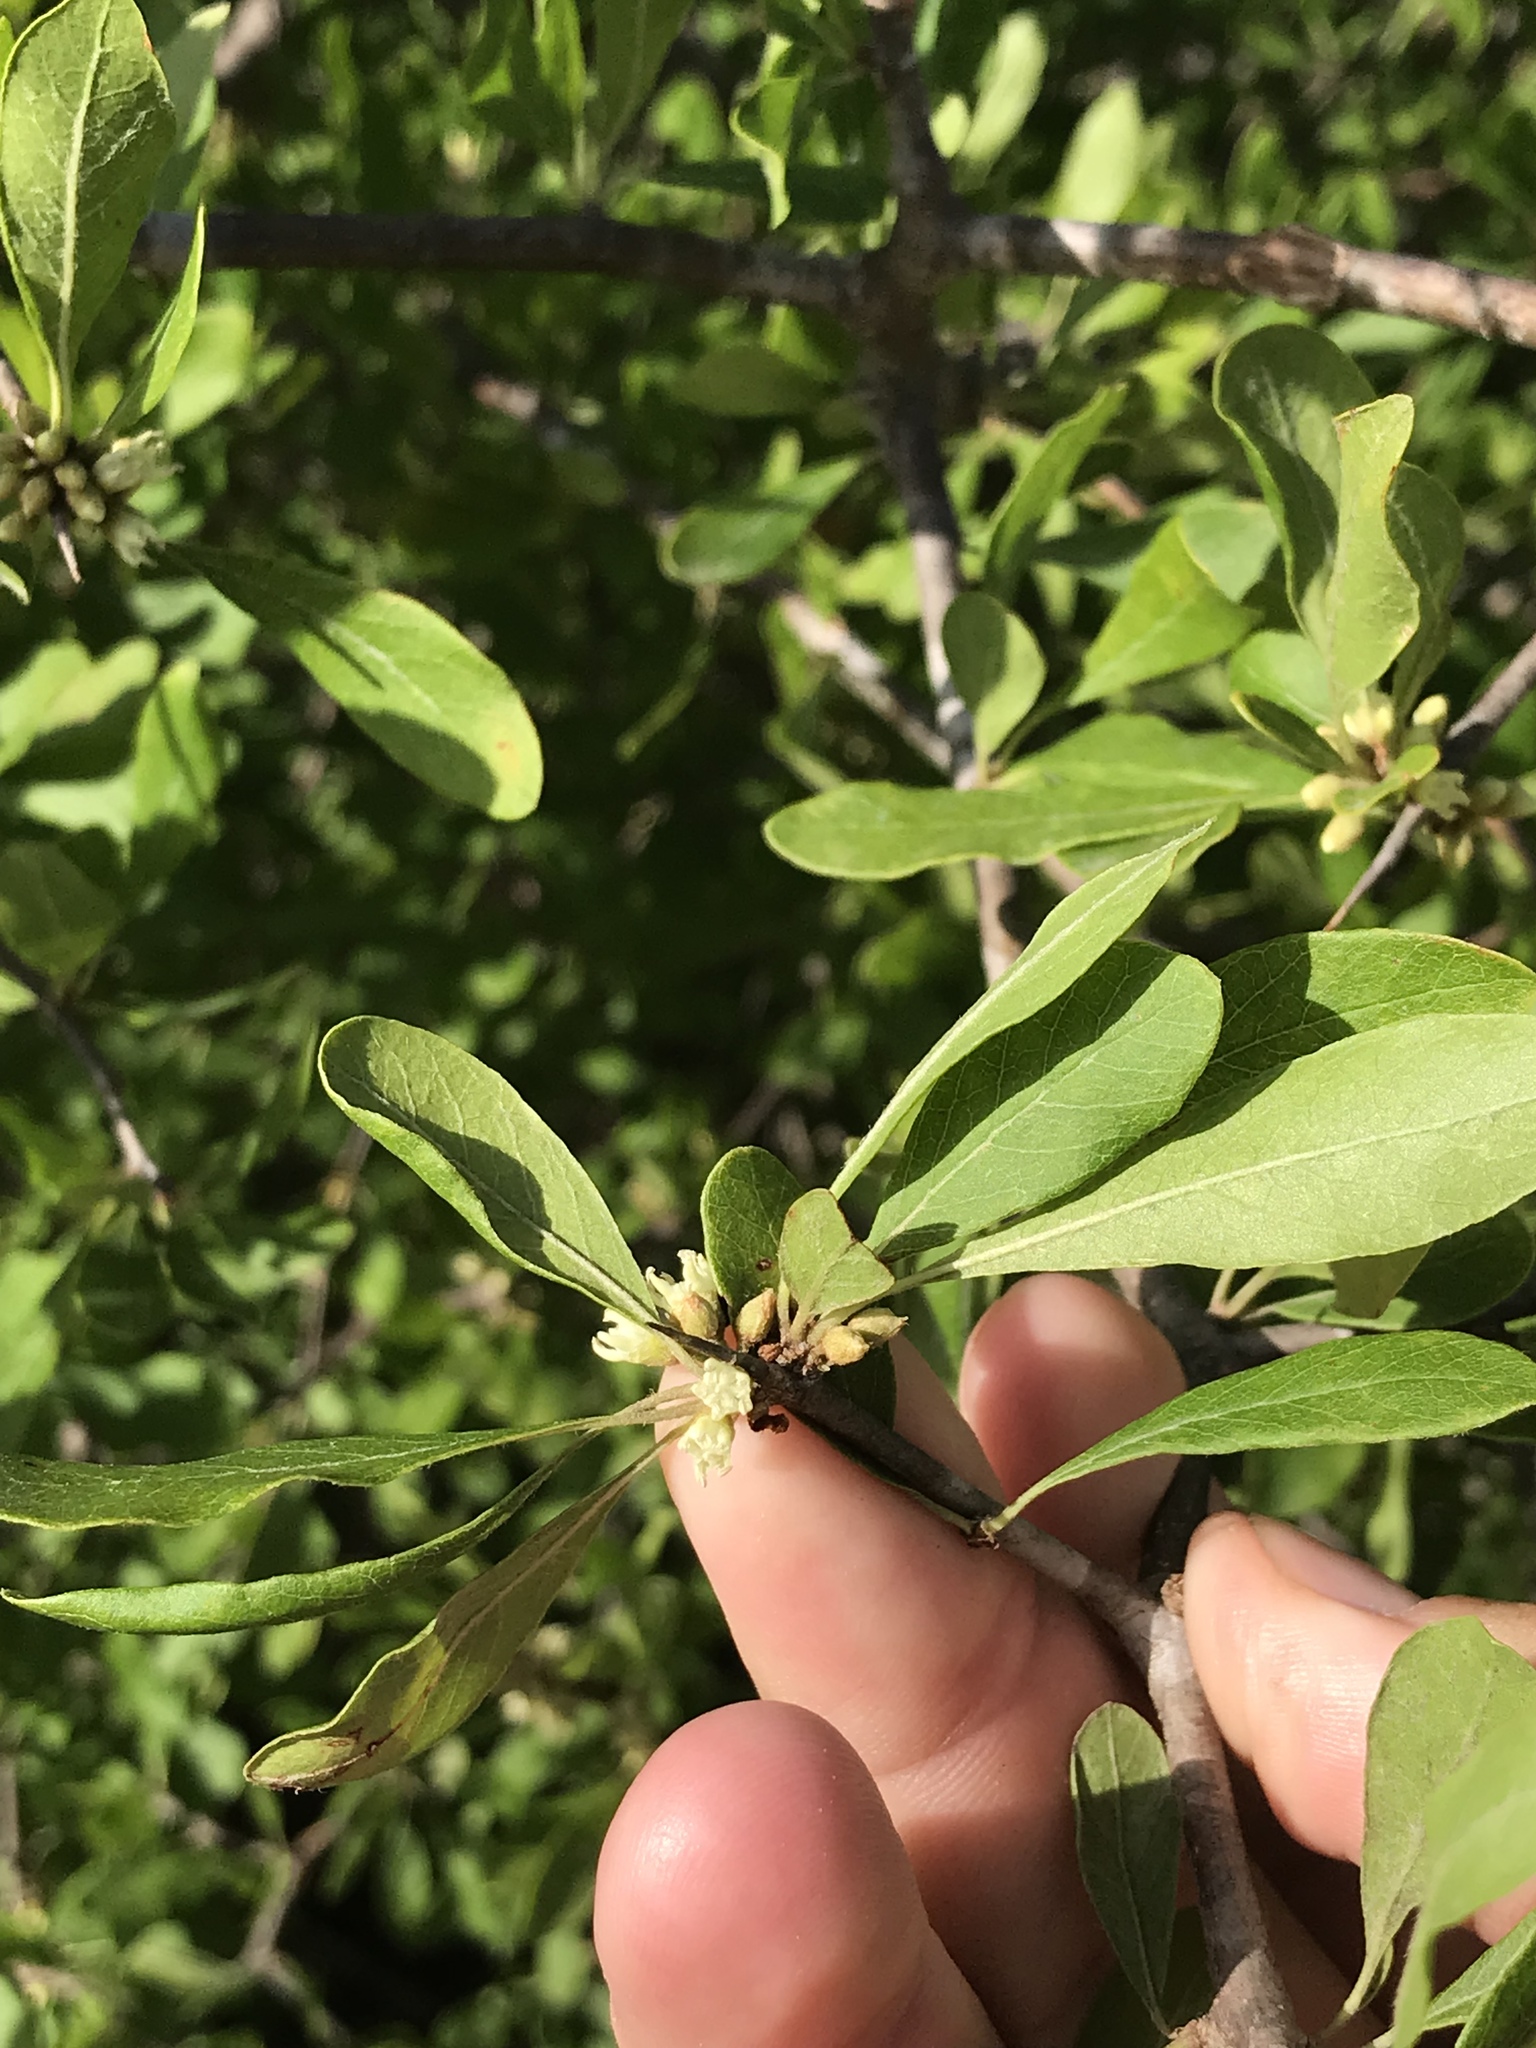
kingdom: Plantae
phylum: Tracheophyta
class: Magnoliopsida
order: Ericales
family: Sapotaceae
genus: Sideroxylon
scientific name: Sideroxylon lanuginosum
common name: Chittamwood
